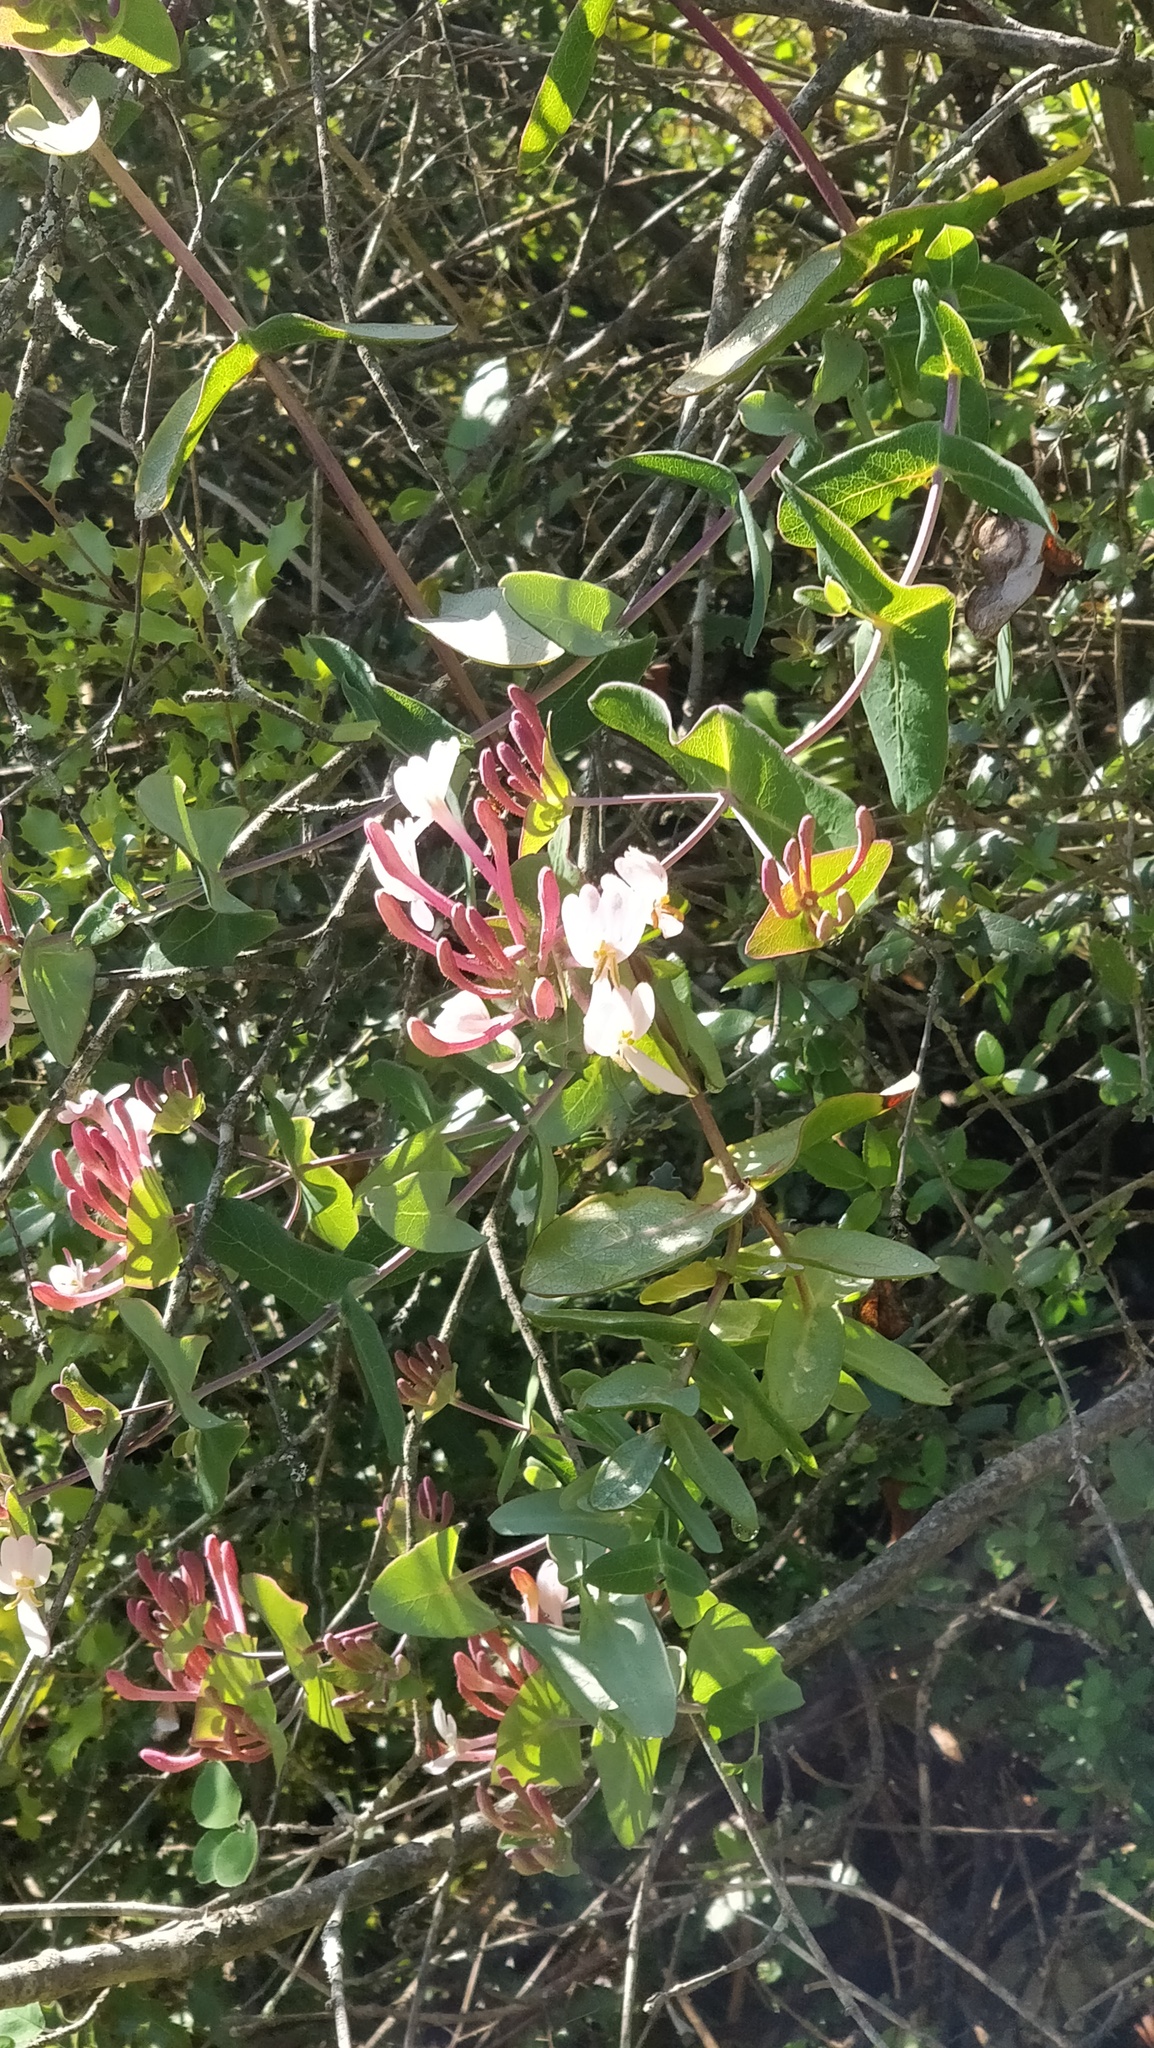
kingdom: Plantae
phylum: Tracheophyta
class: Magnoliopsida
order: Dipsacales
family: Caprifoliaceae
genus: Lonicera
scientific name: Lonicera etrusca
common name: Etruscan honeysuckle
